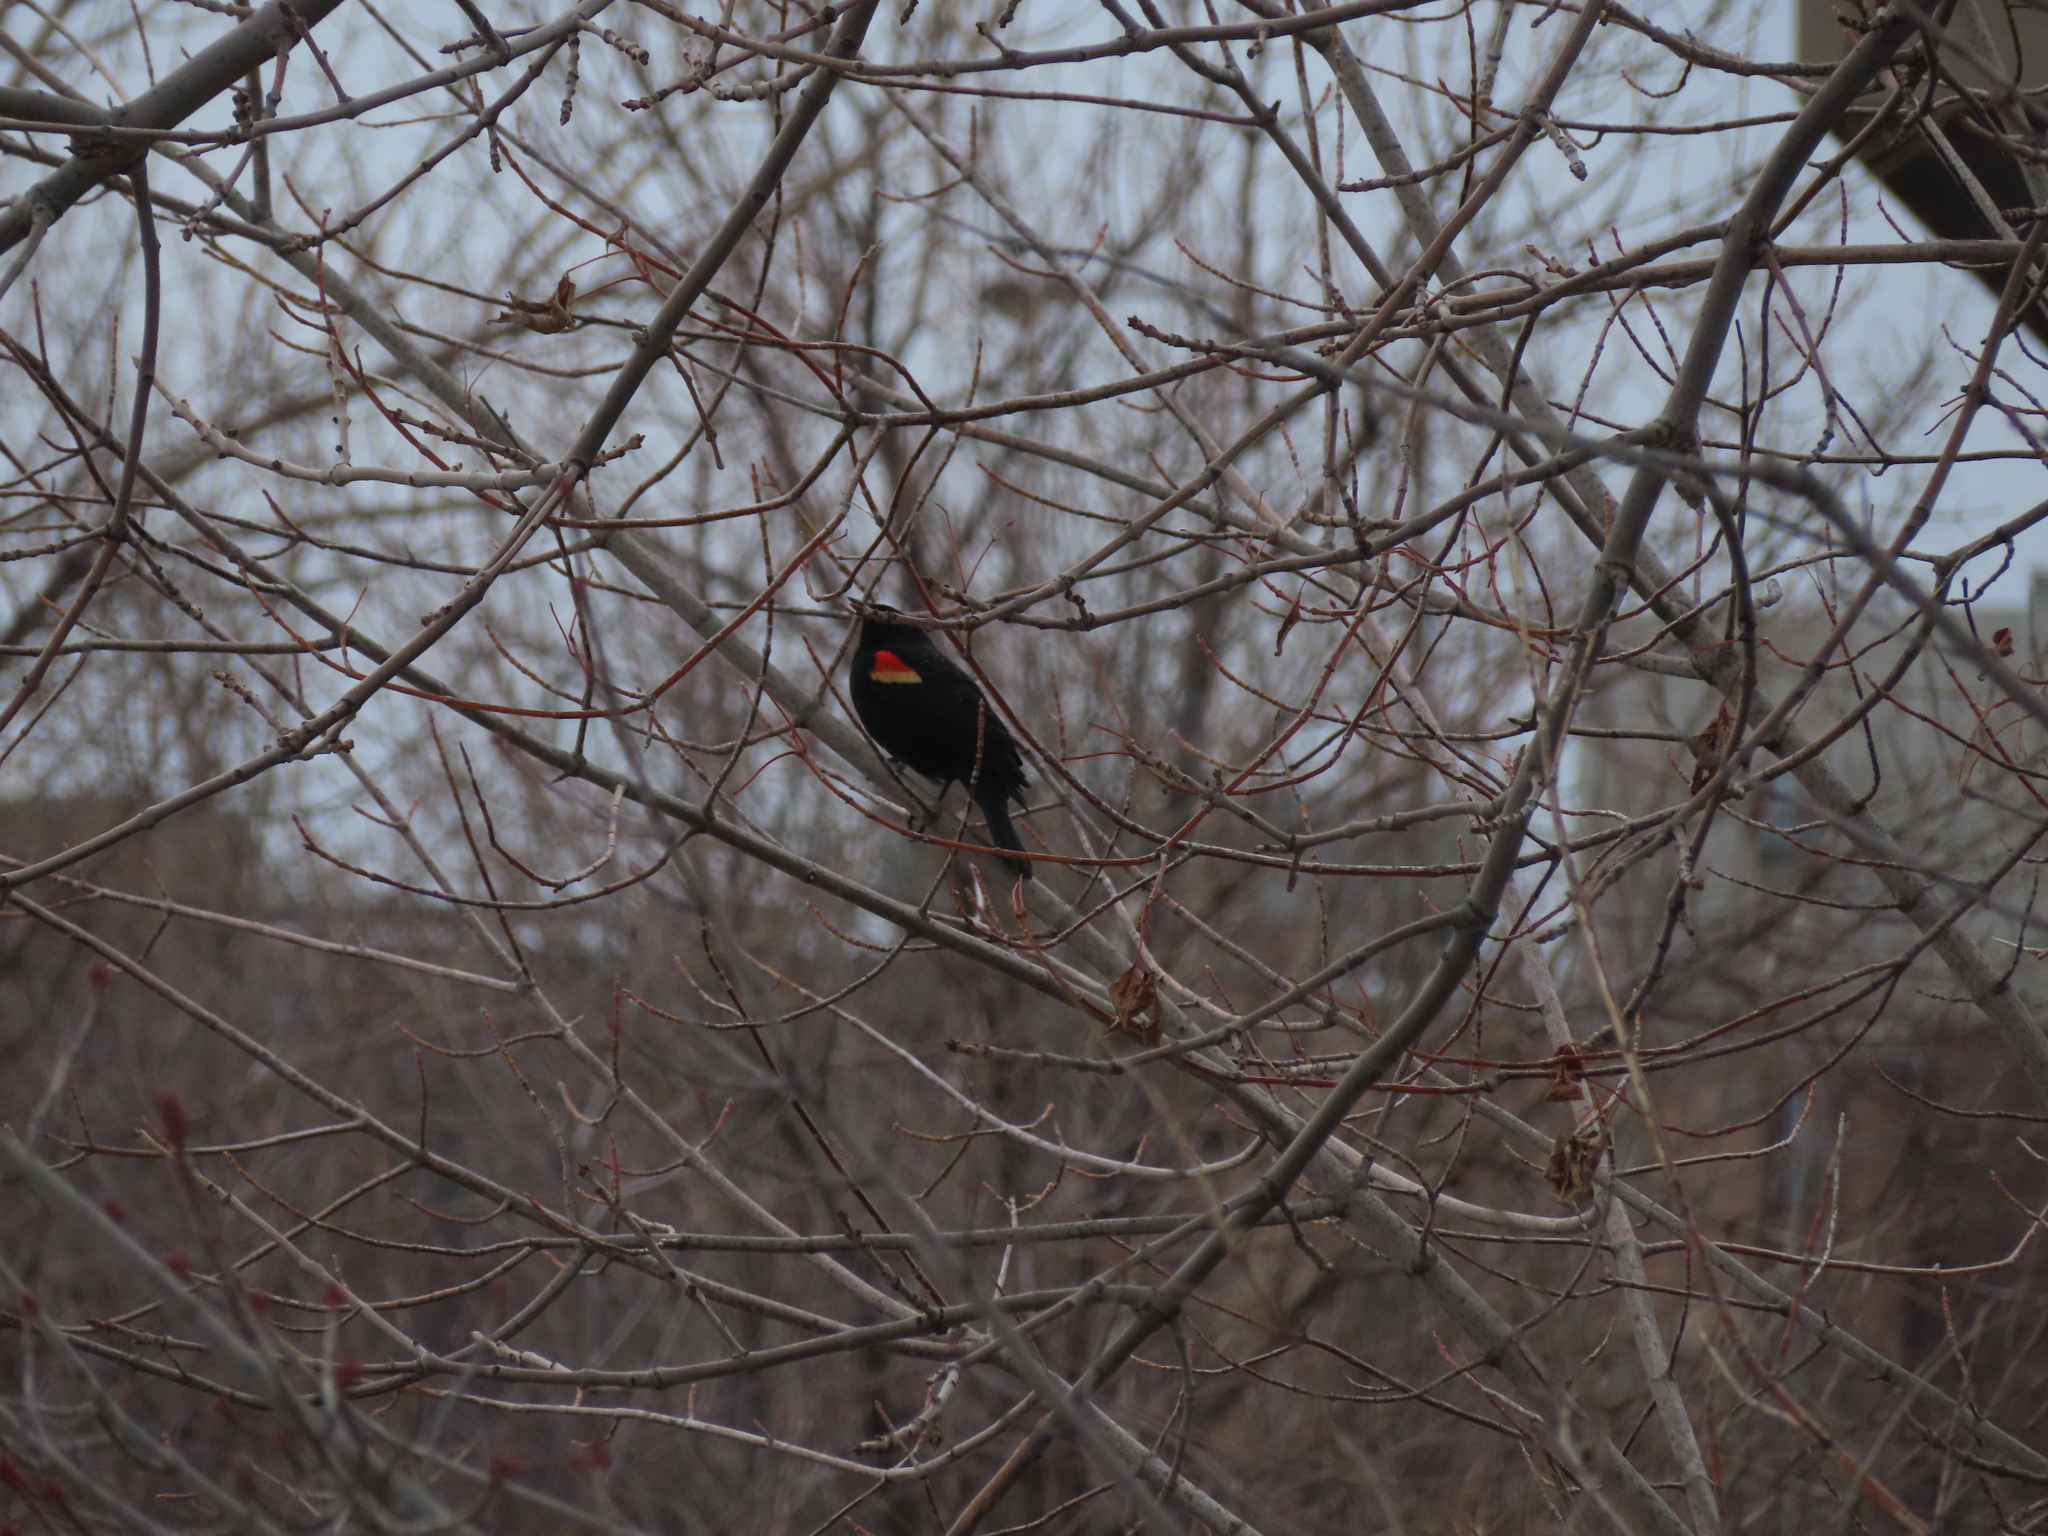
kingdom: Animalia
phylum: Chordata
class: Aves
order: Passeriformes
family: Icteridae
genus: Agelaius
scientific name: Agelaius phoeniceus
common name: Red-winged blackbird
